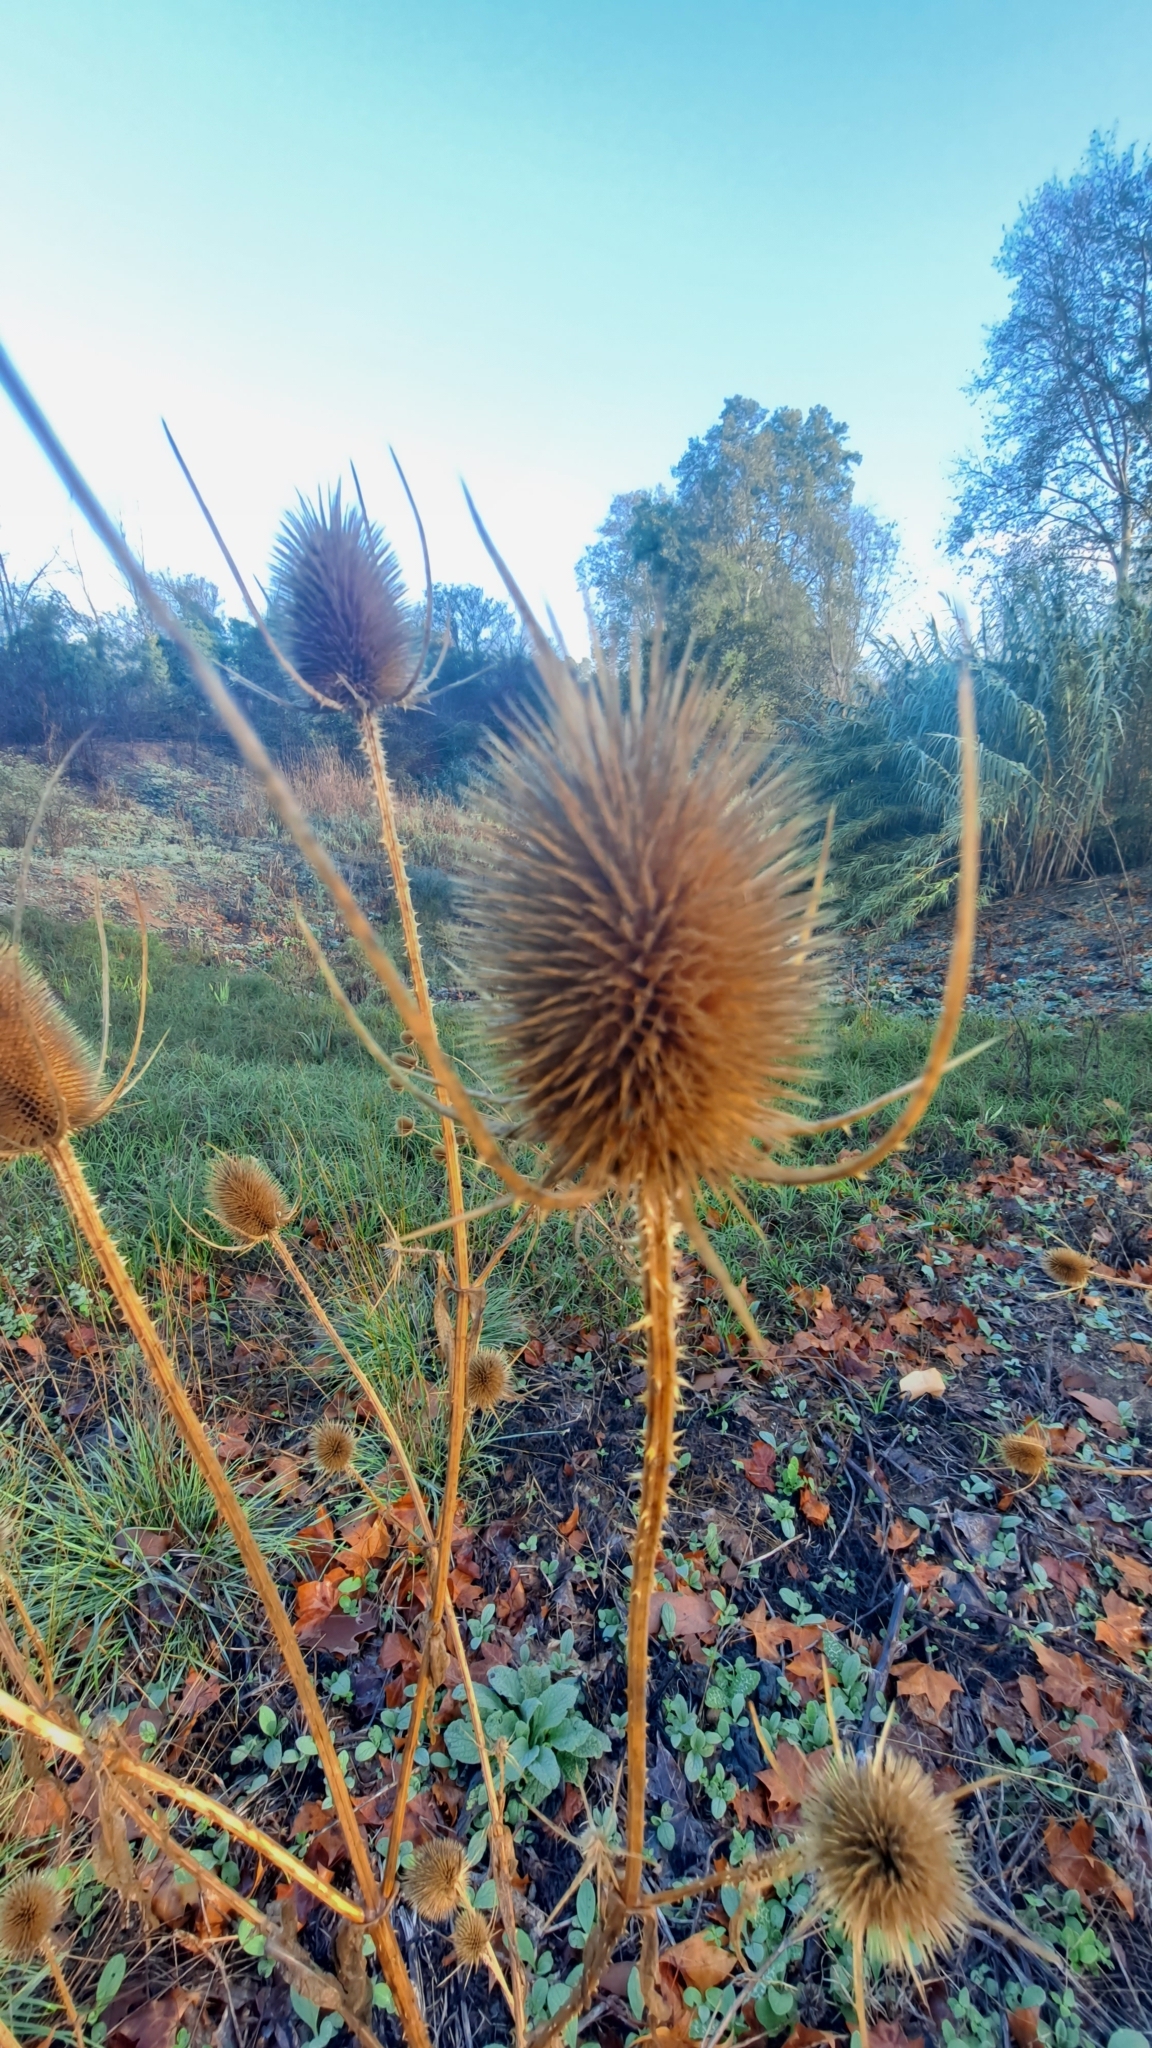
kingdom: Plantae
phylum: Tracheophyta
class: Magnoliopsida
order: Dipsacales
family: Caprifoliaceae
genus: Dipsacus
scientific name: Dipsacus fullonum
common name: Teasel
